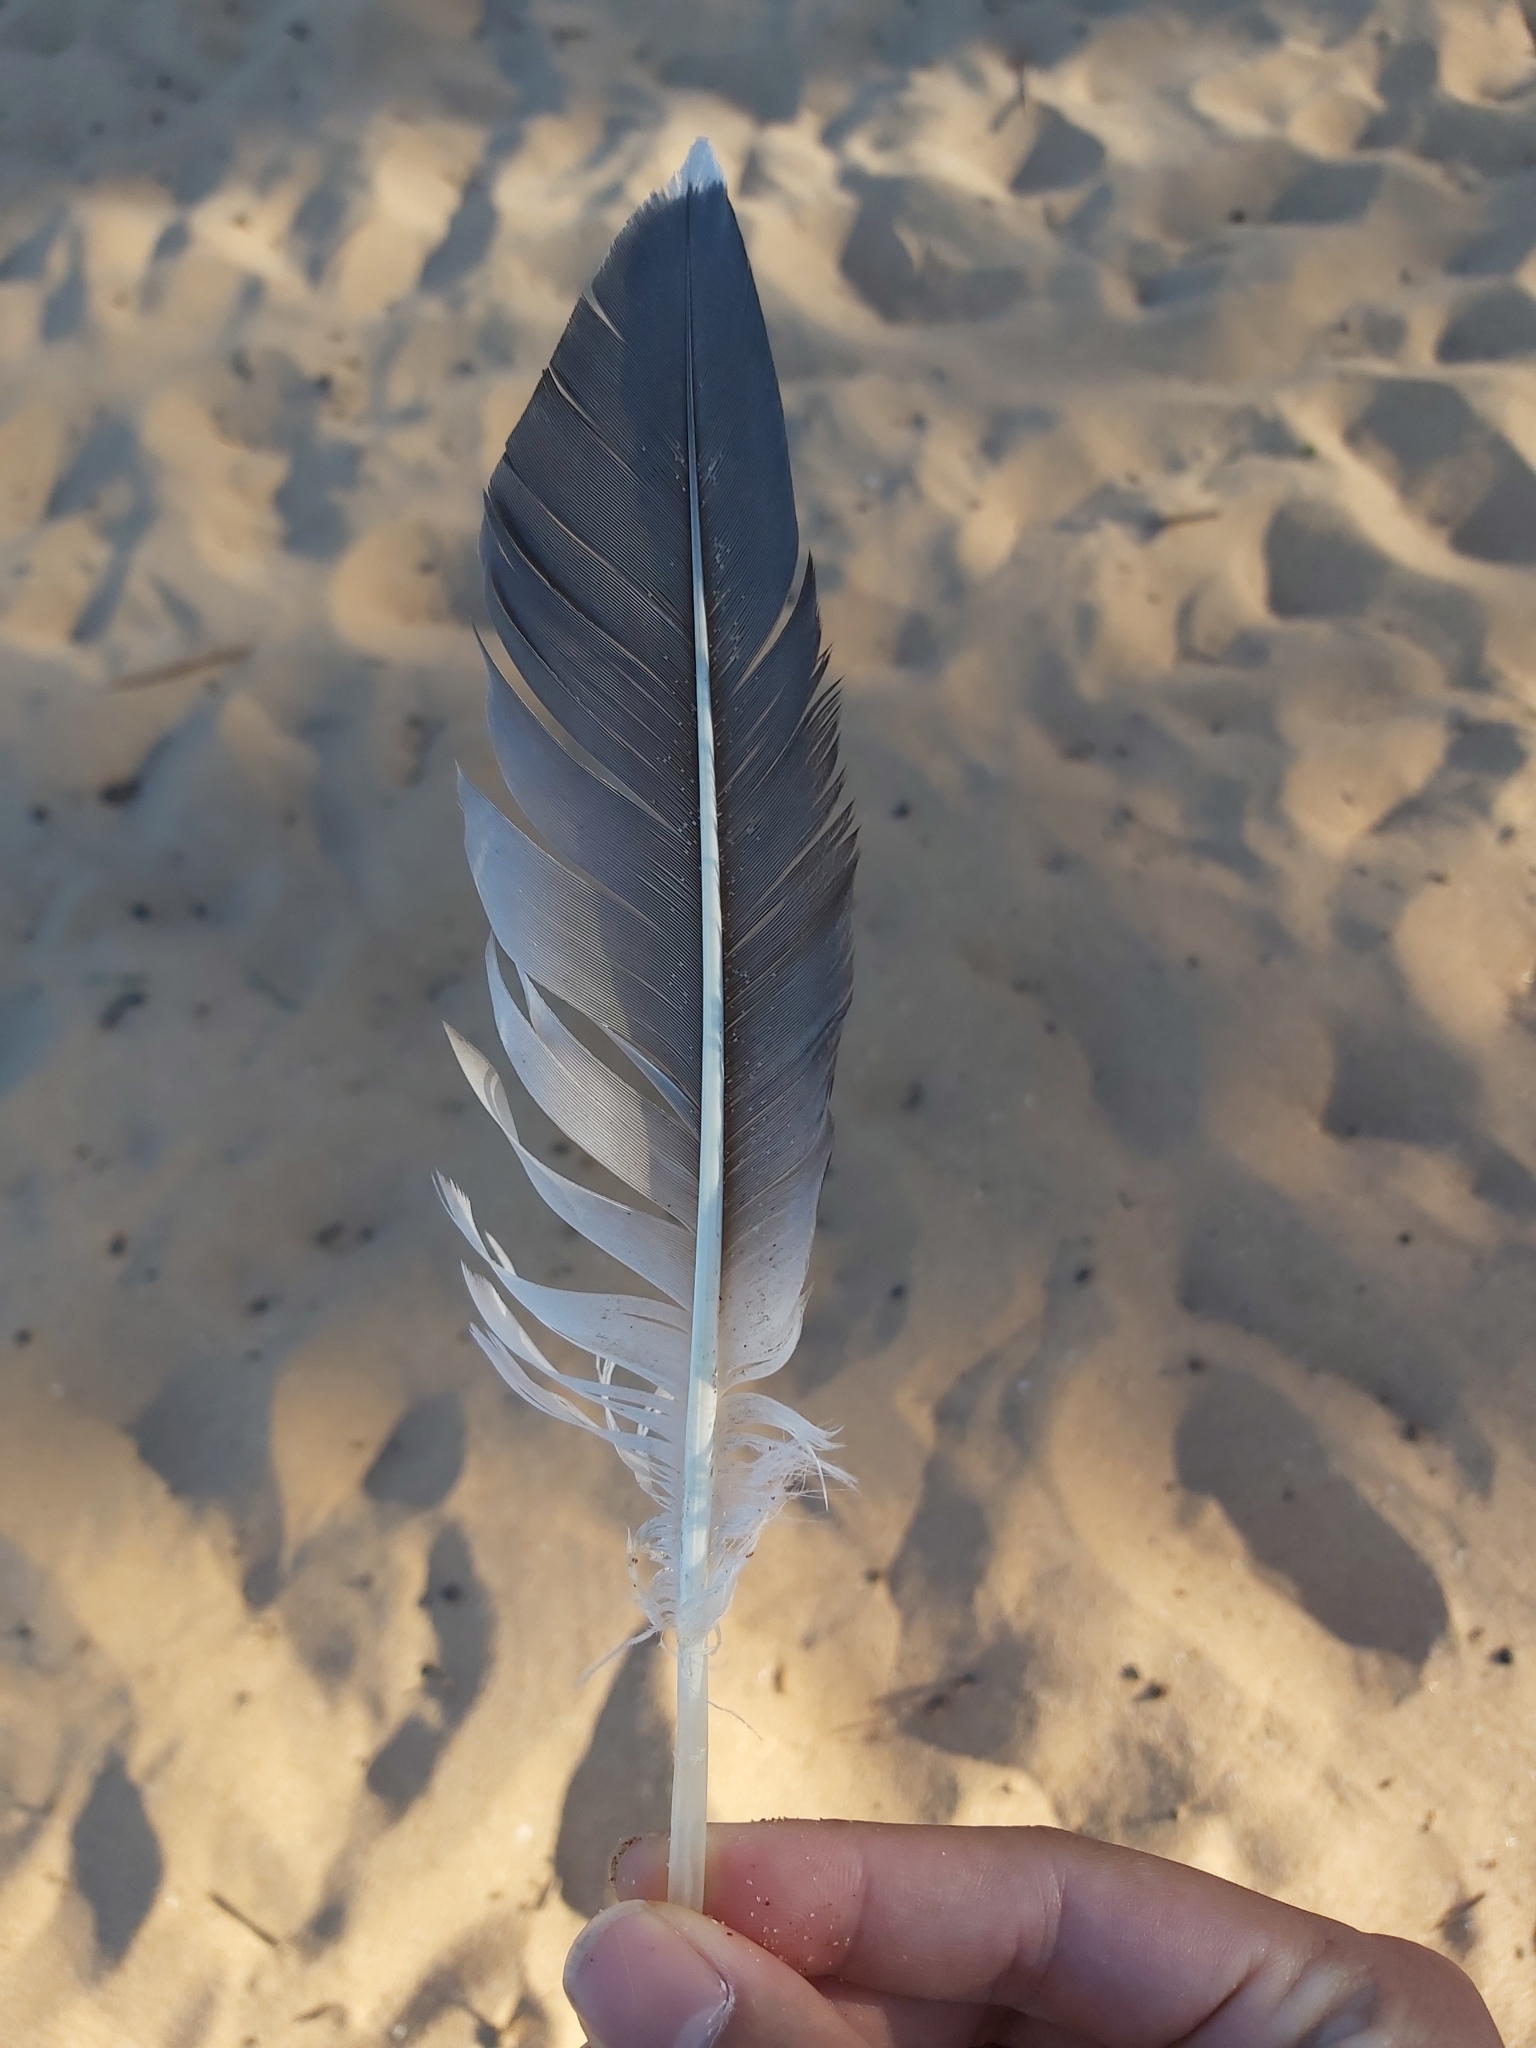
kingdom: Animalia
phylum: Chordata
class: Aves
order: Suliformes
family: Sulidae
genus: Morus
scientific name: Morus serrator
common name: Australasian gannet
